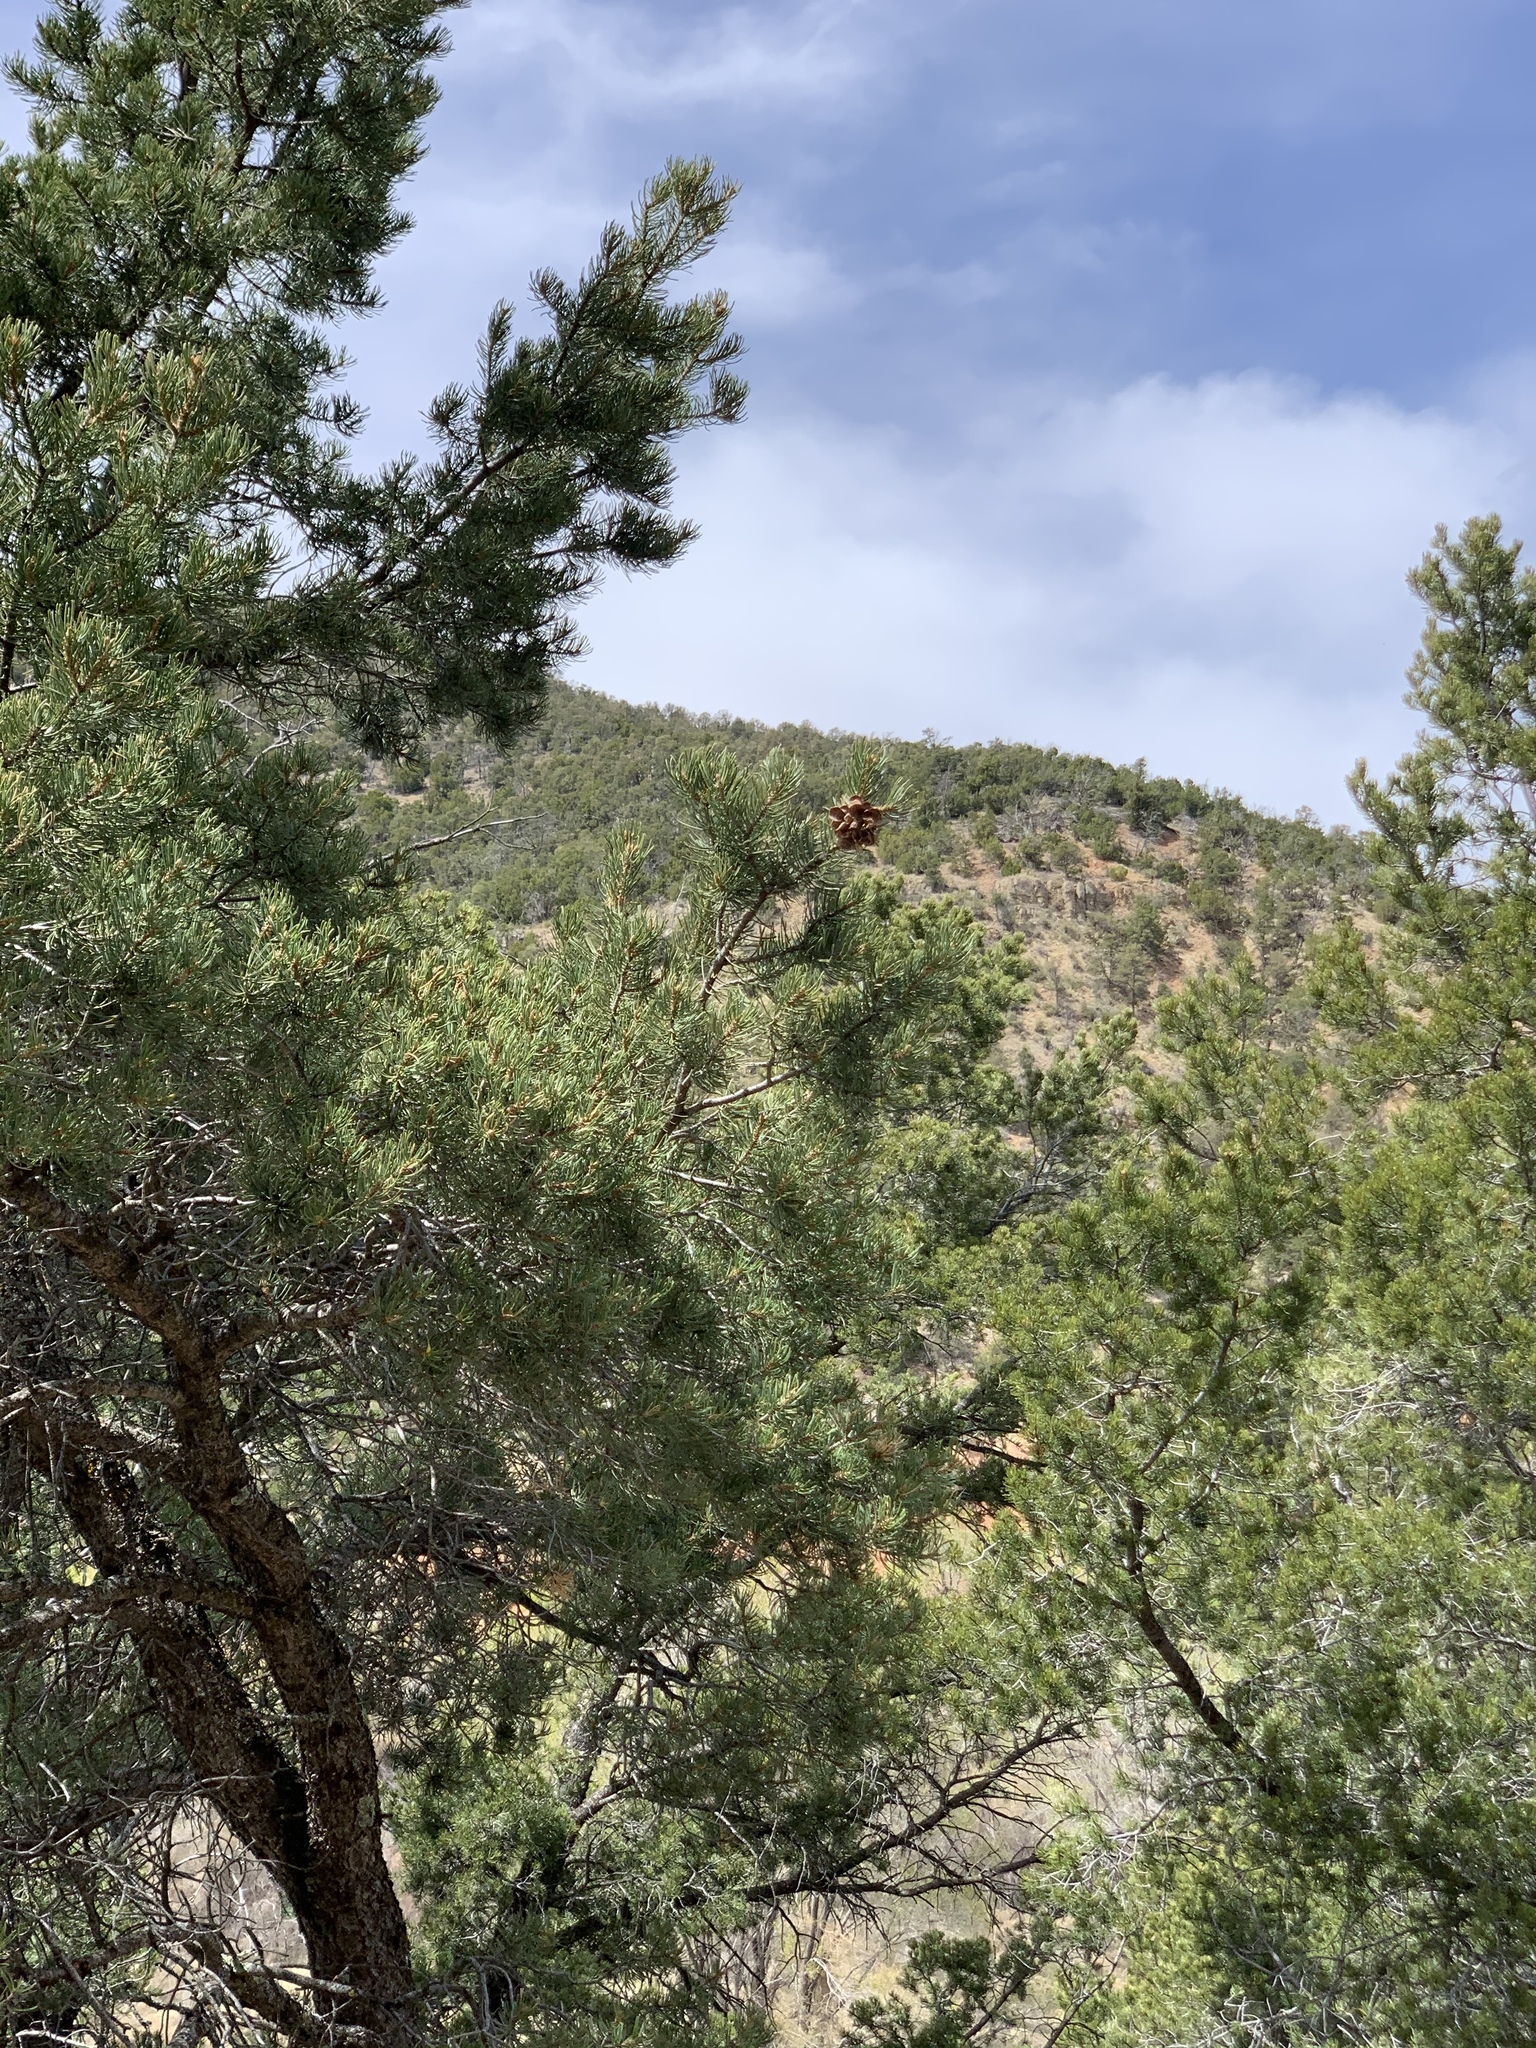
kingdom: Plantae
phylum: Tracheophyta
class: Pinopsida
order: Pinales
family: Pinaceae
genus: Pinus
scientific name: Pinus edulis
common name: Colorado pinyon
